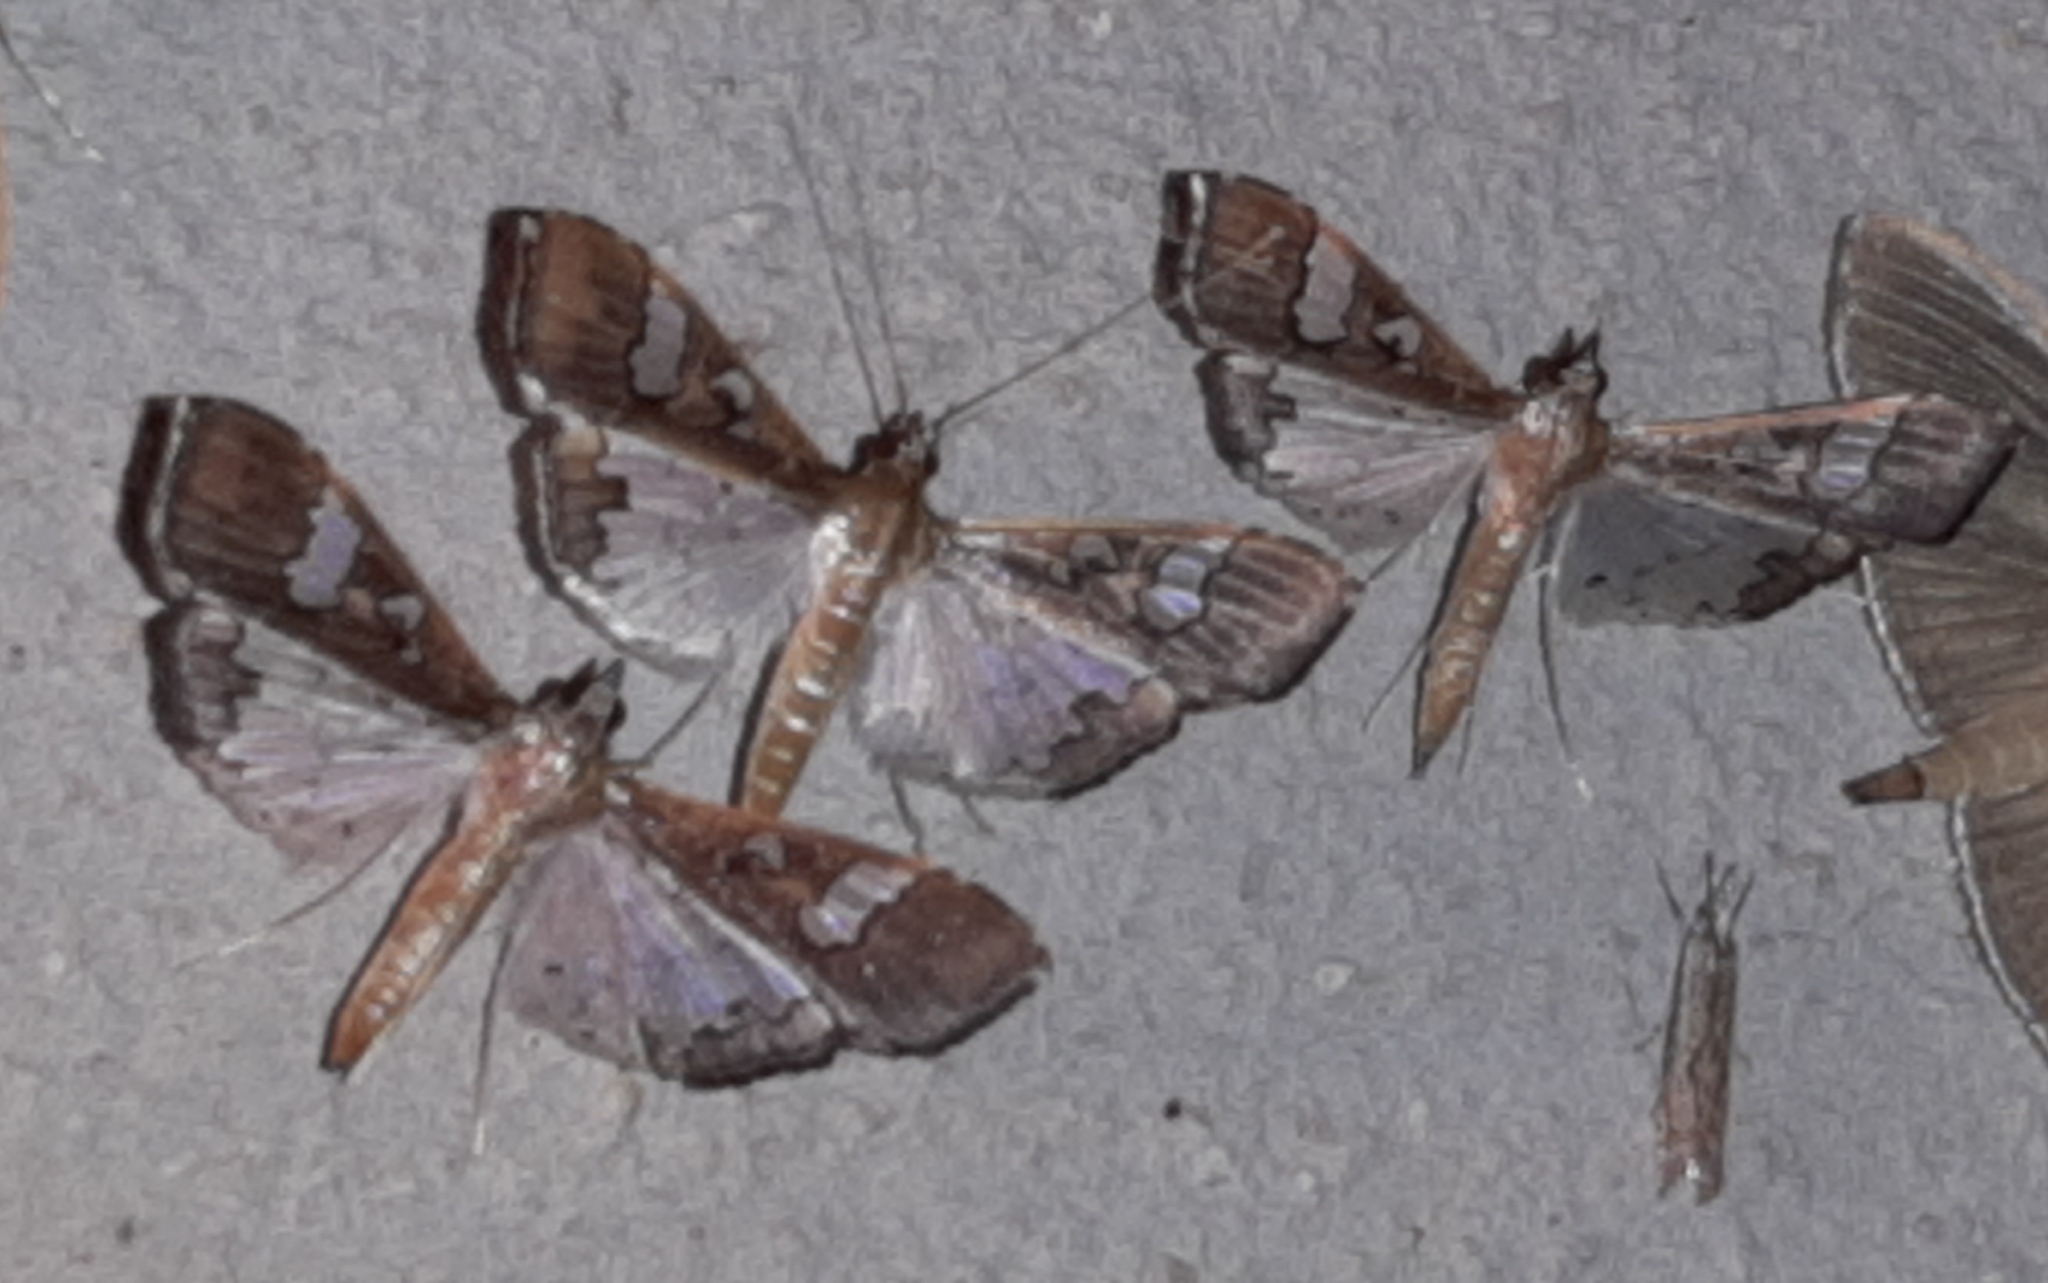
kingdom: Animalia
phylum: Arthropoda
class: Insecta
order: Lepidoptera
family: Crambidae
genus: Maruca
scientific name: Maruca vitrata
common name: Maruca pod borer
